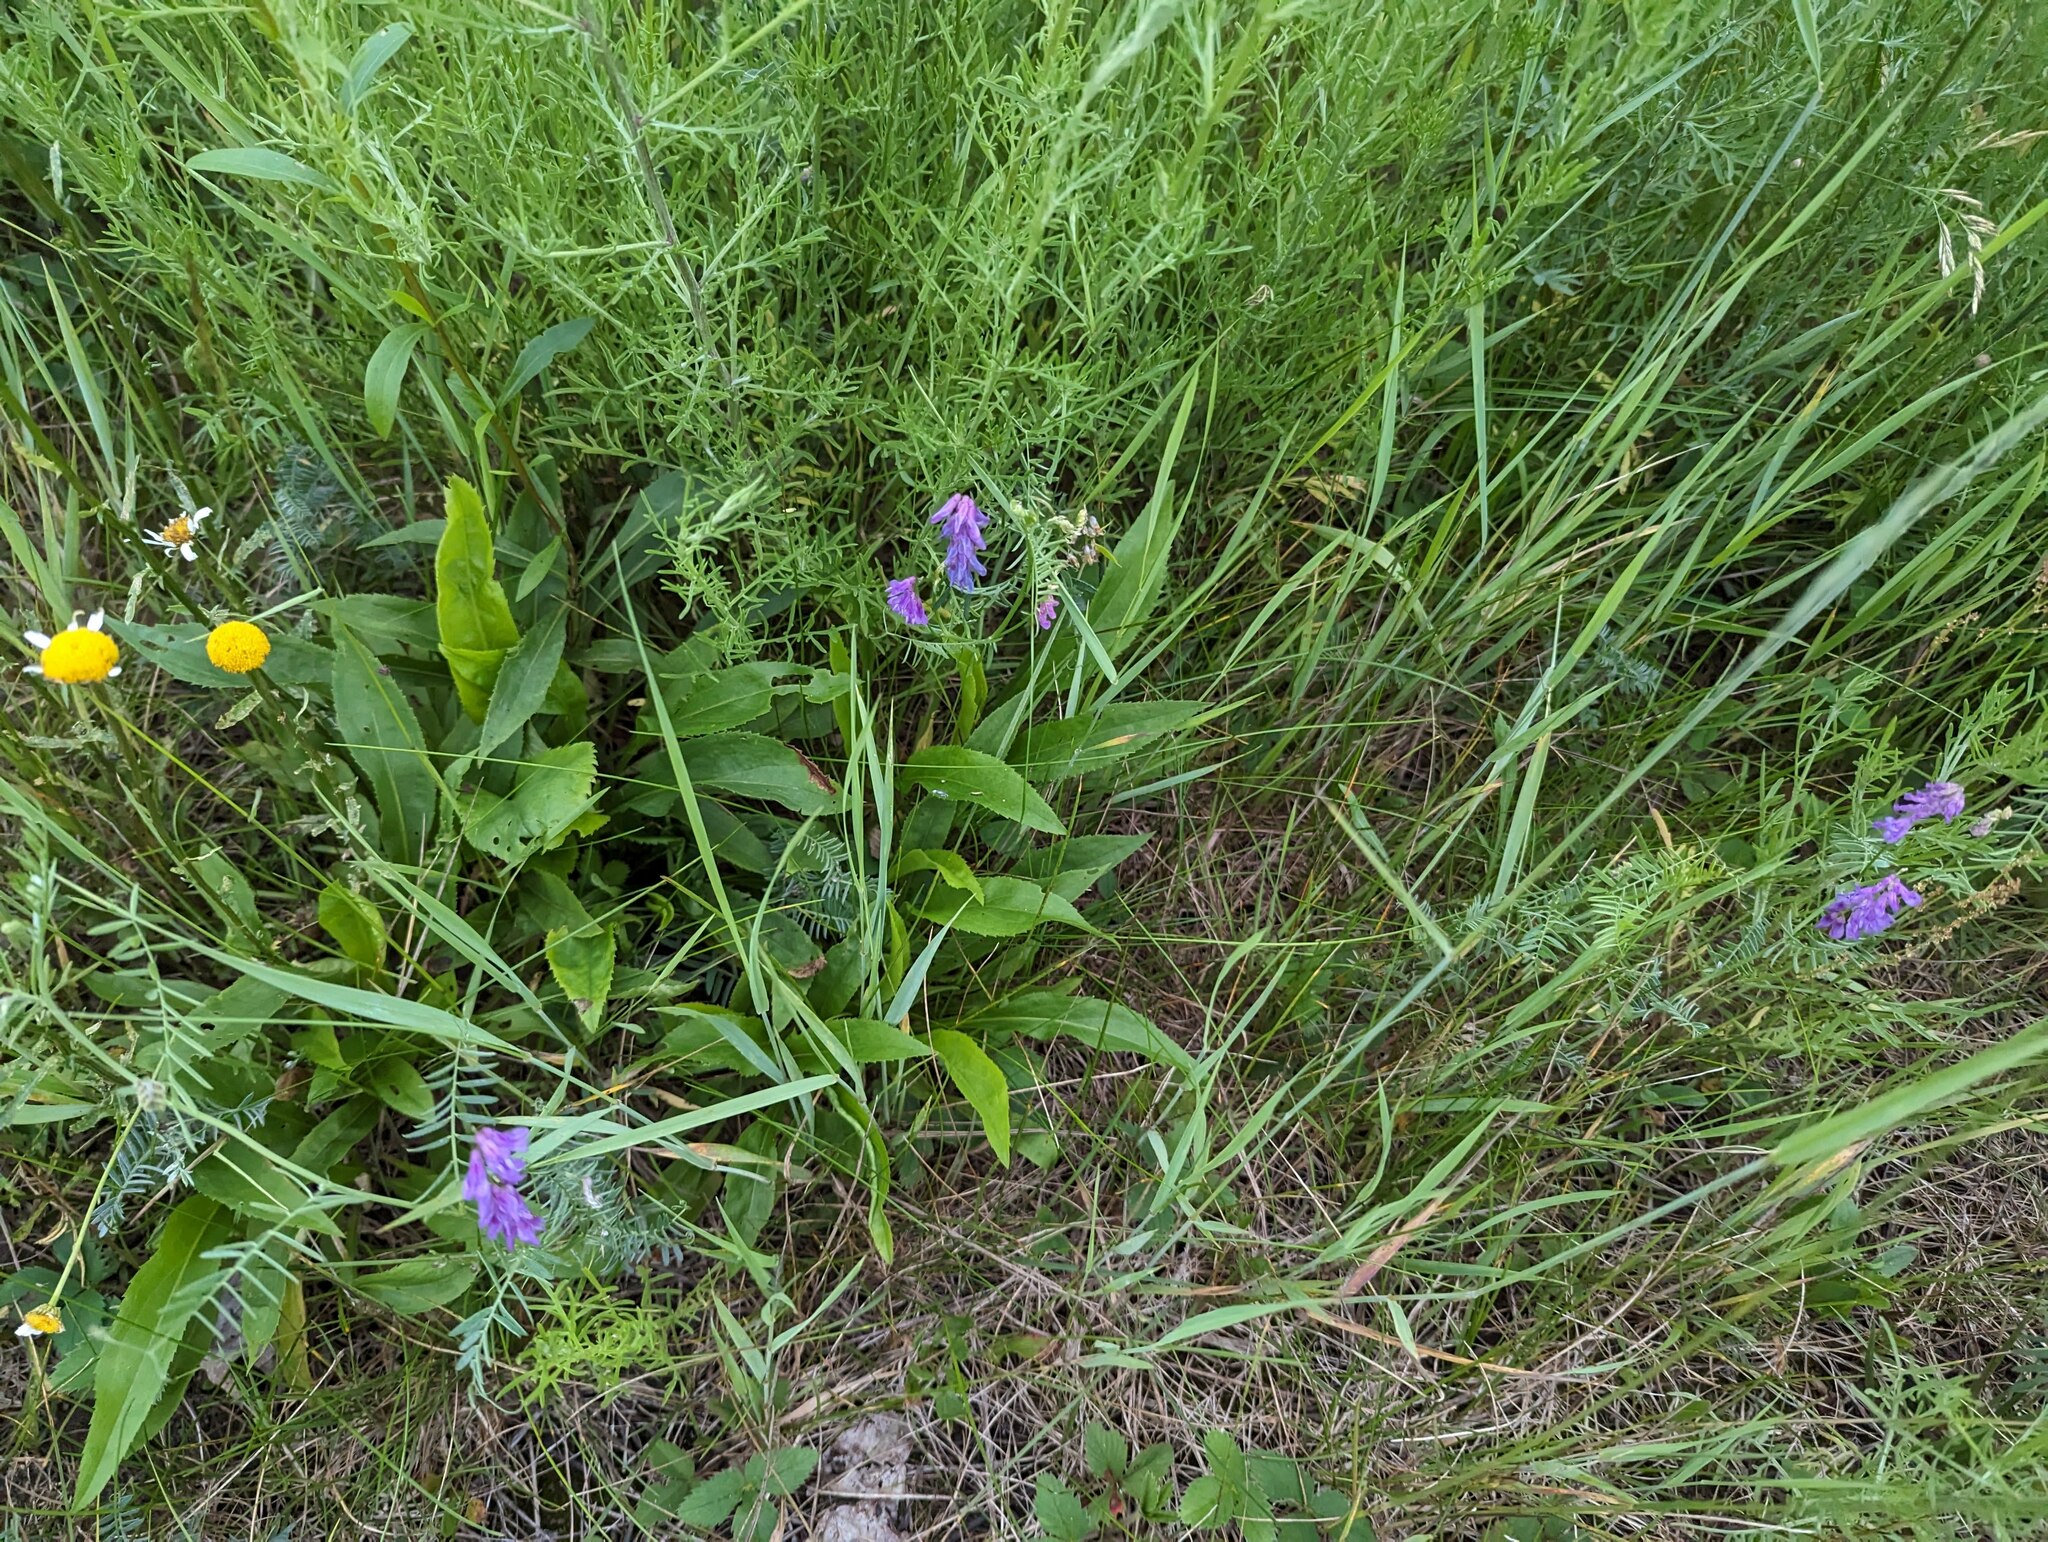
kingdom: Plantae
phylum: Tracheophyta
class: Magnoliopsida
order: Fabales
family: Fabaceae
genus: Vicia
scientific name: Vicia cracca
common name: Bird vetch
